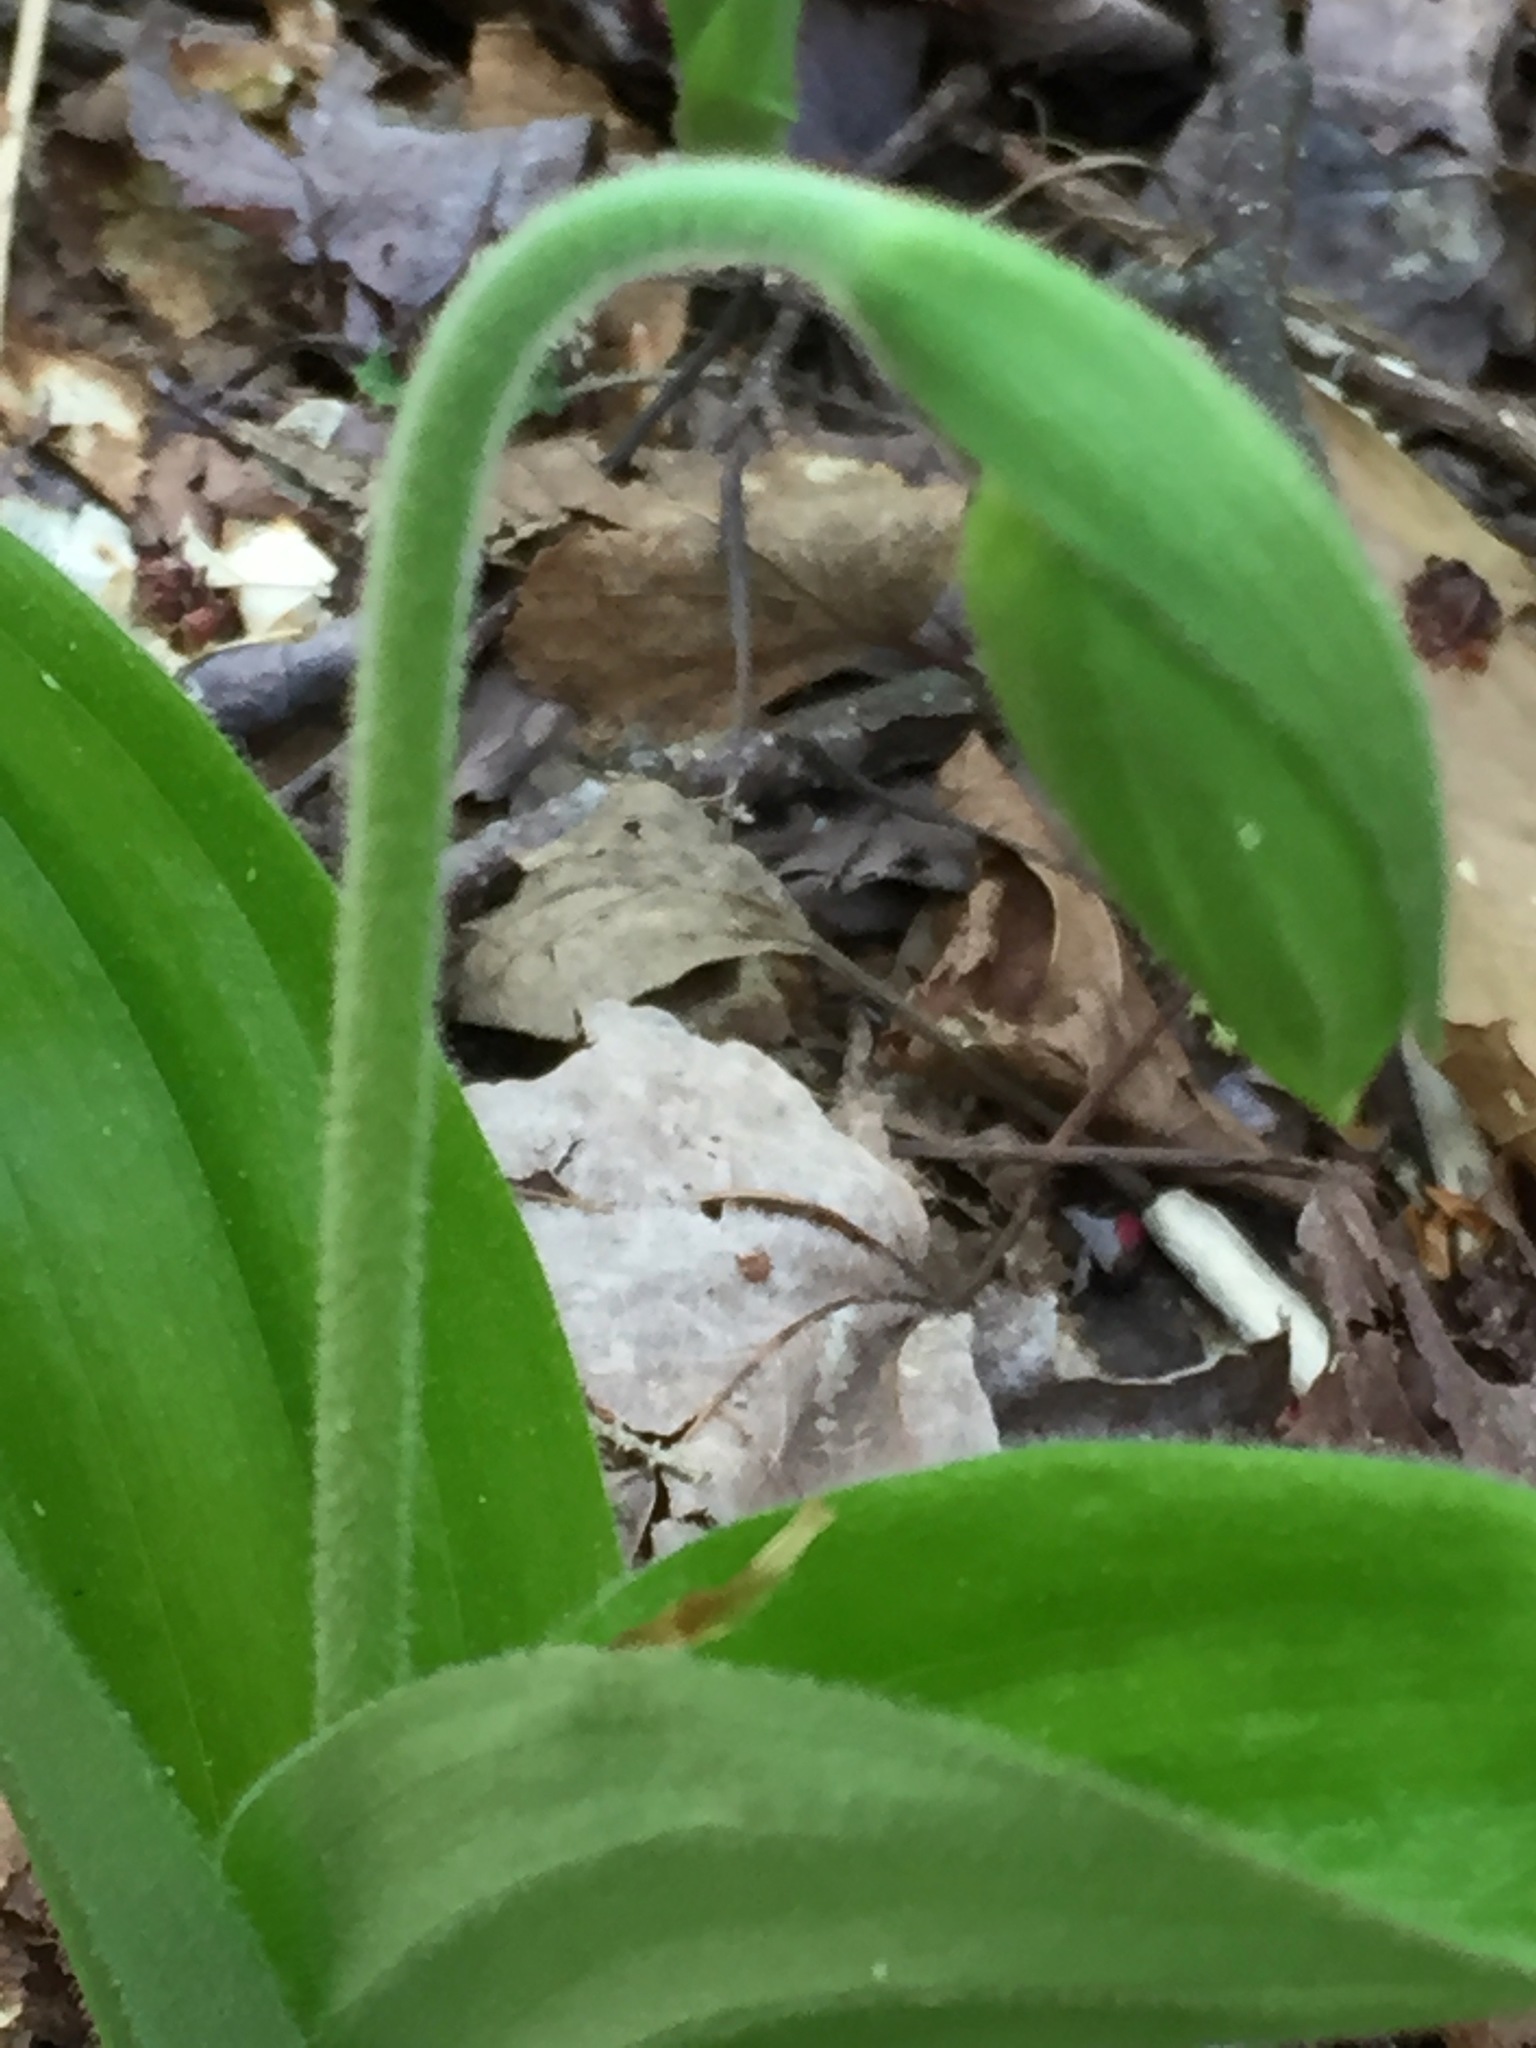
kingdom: Plantae
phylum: Tracheophyta
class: Liliopsida
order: Asparagales
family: Orchidaceae
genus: Cypripedium
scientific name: Cypripedium acaule
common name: Pink lady's-slipper
